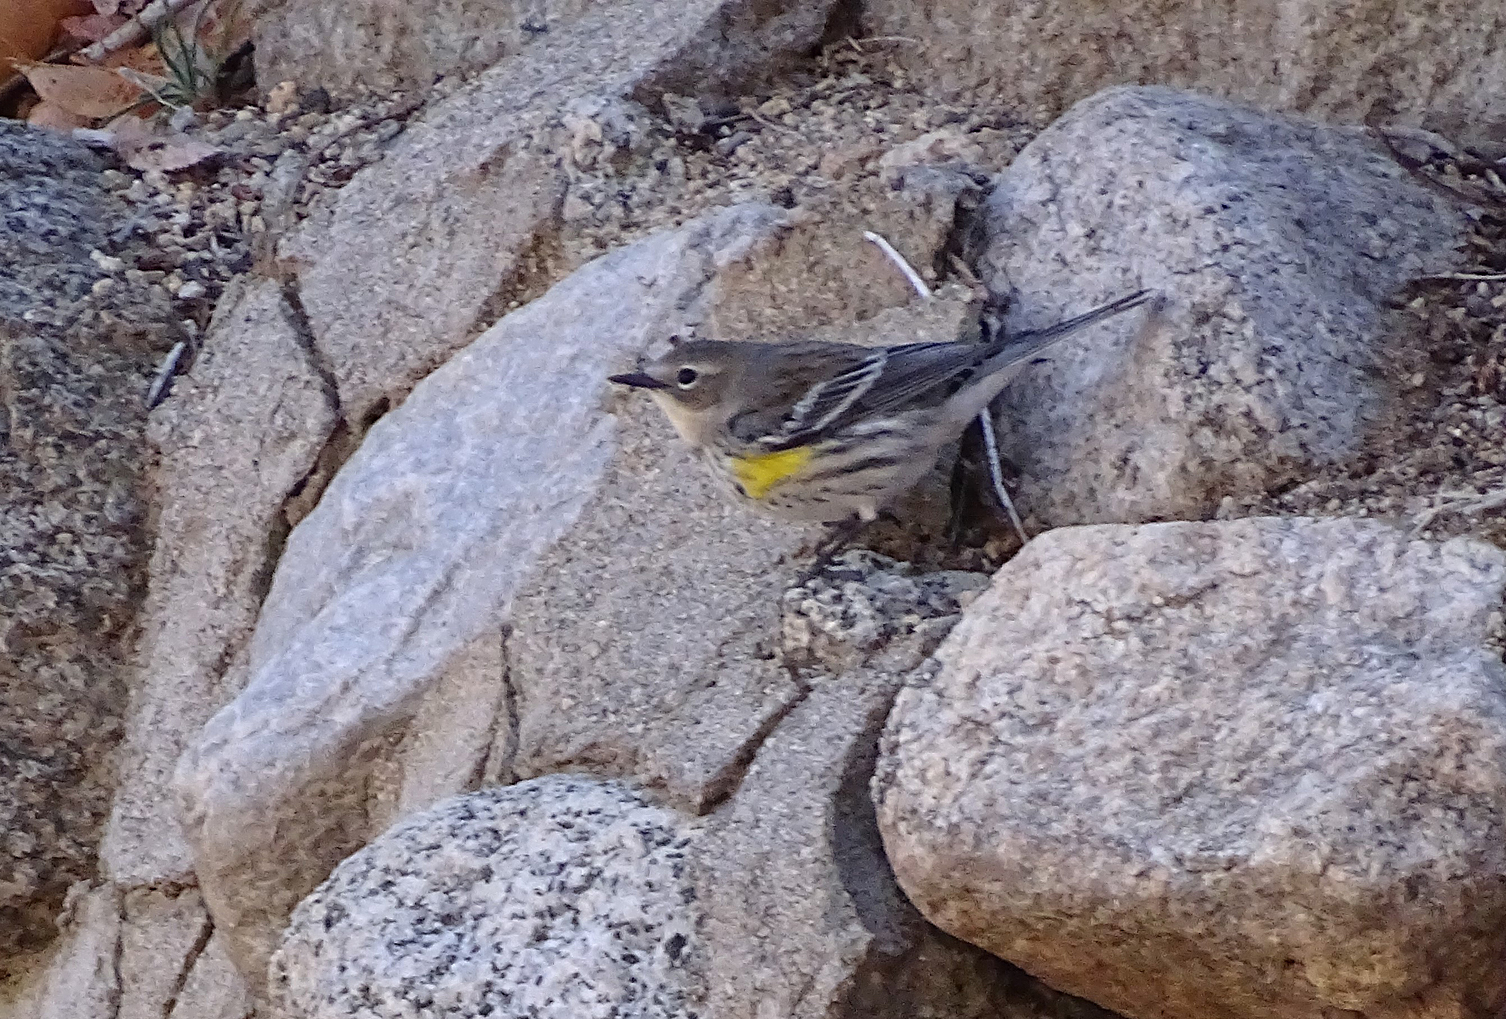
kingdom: Animalia
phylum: Chordata
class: Aves
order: Passeriformes
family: Parulidae
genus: Setophaga
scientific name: Setophaga coronata
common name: Myrtle warbler
